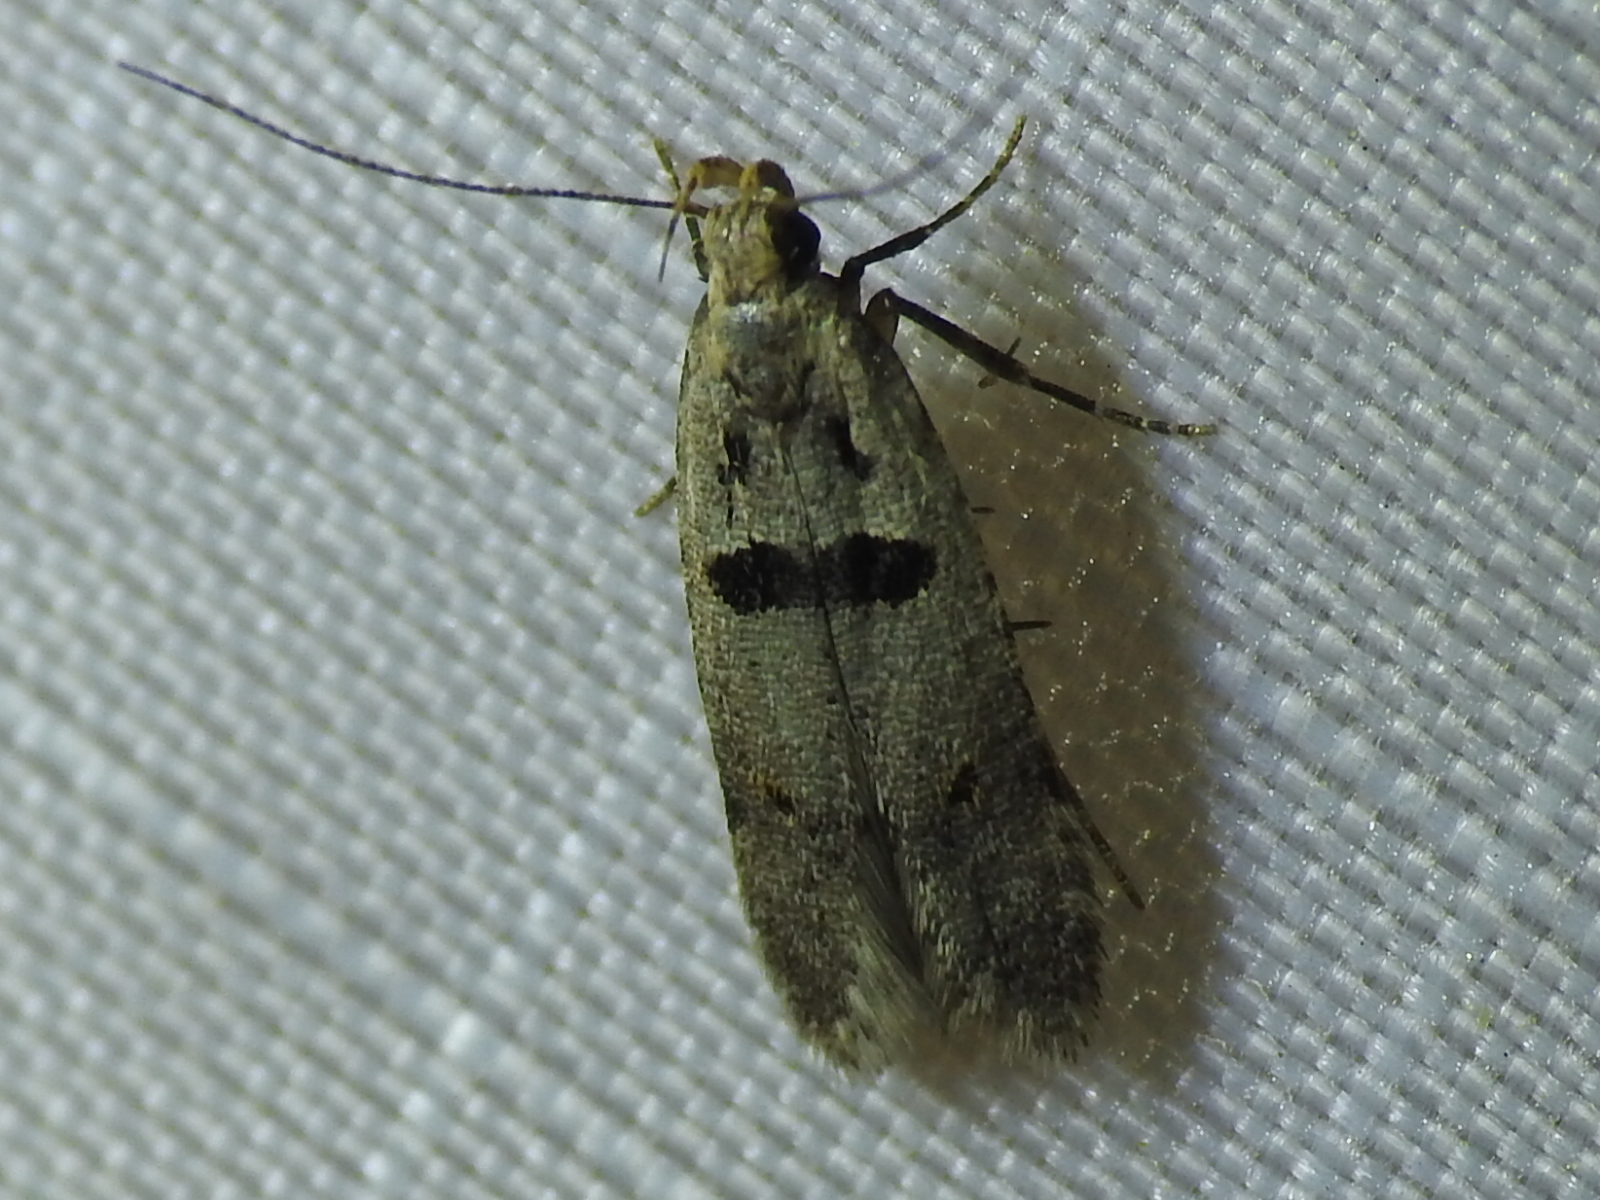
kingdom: Animalia
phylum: Arthropoda
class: Insecta
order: Lepidoptera
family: Gelechiidae
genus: Deltophora
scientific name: Deltophora glandiferella
